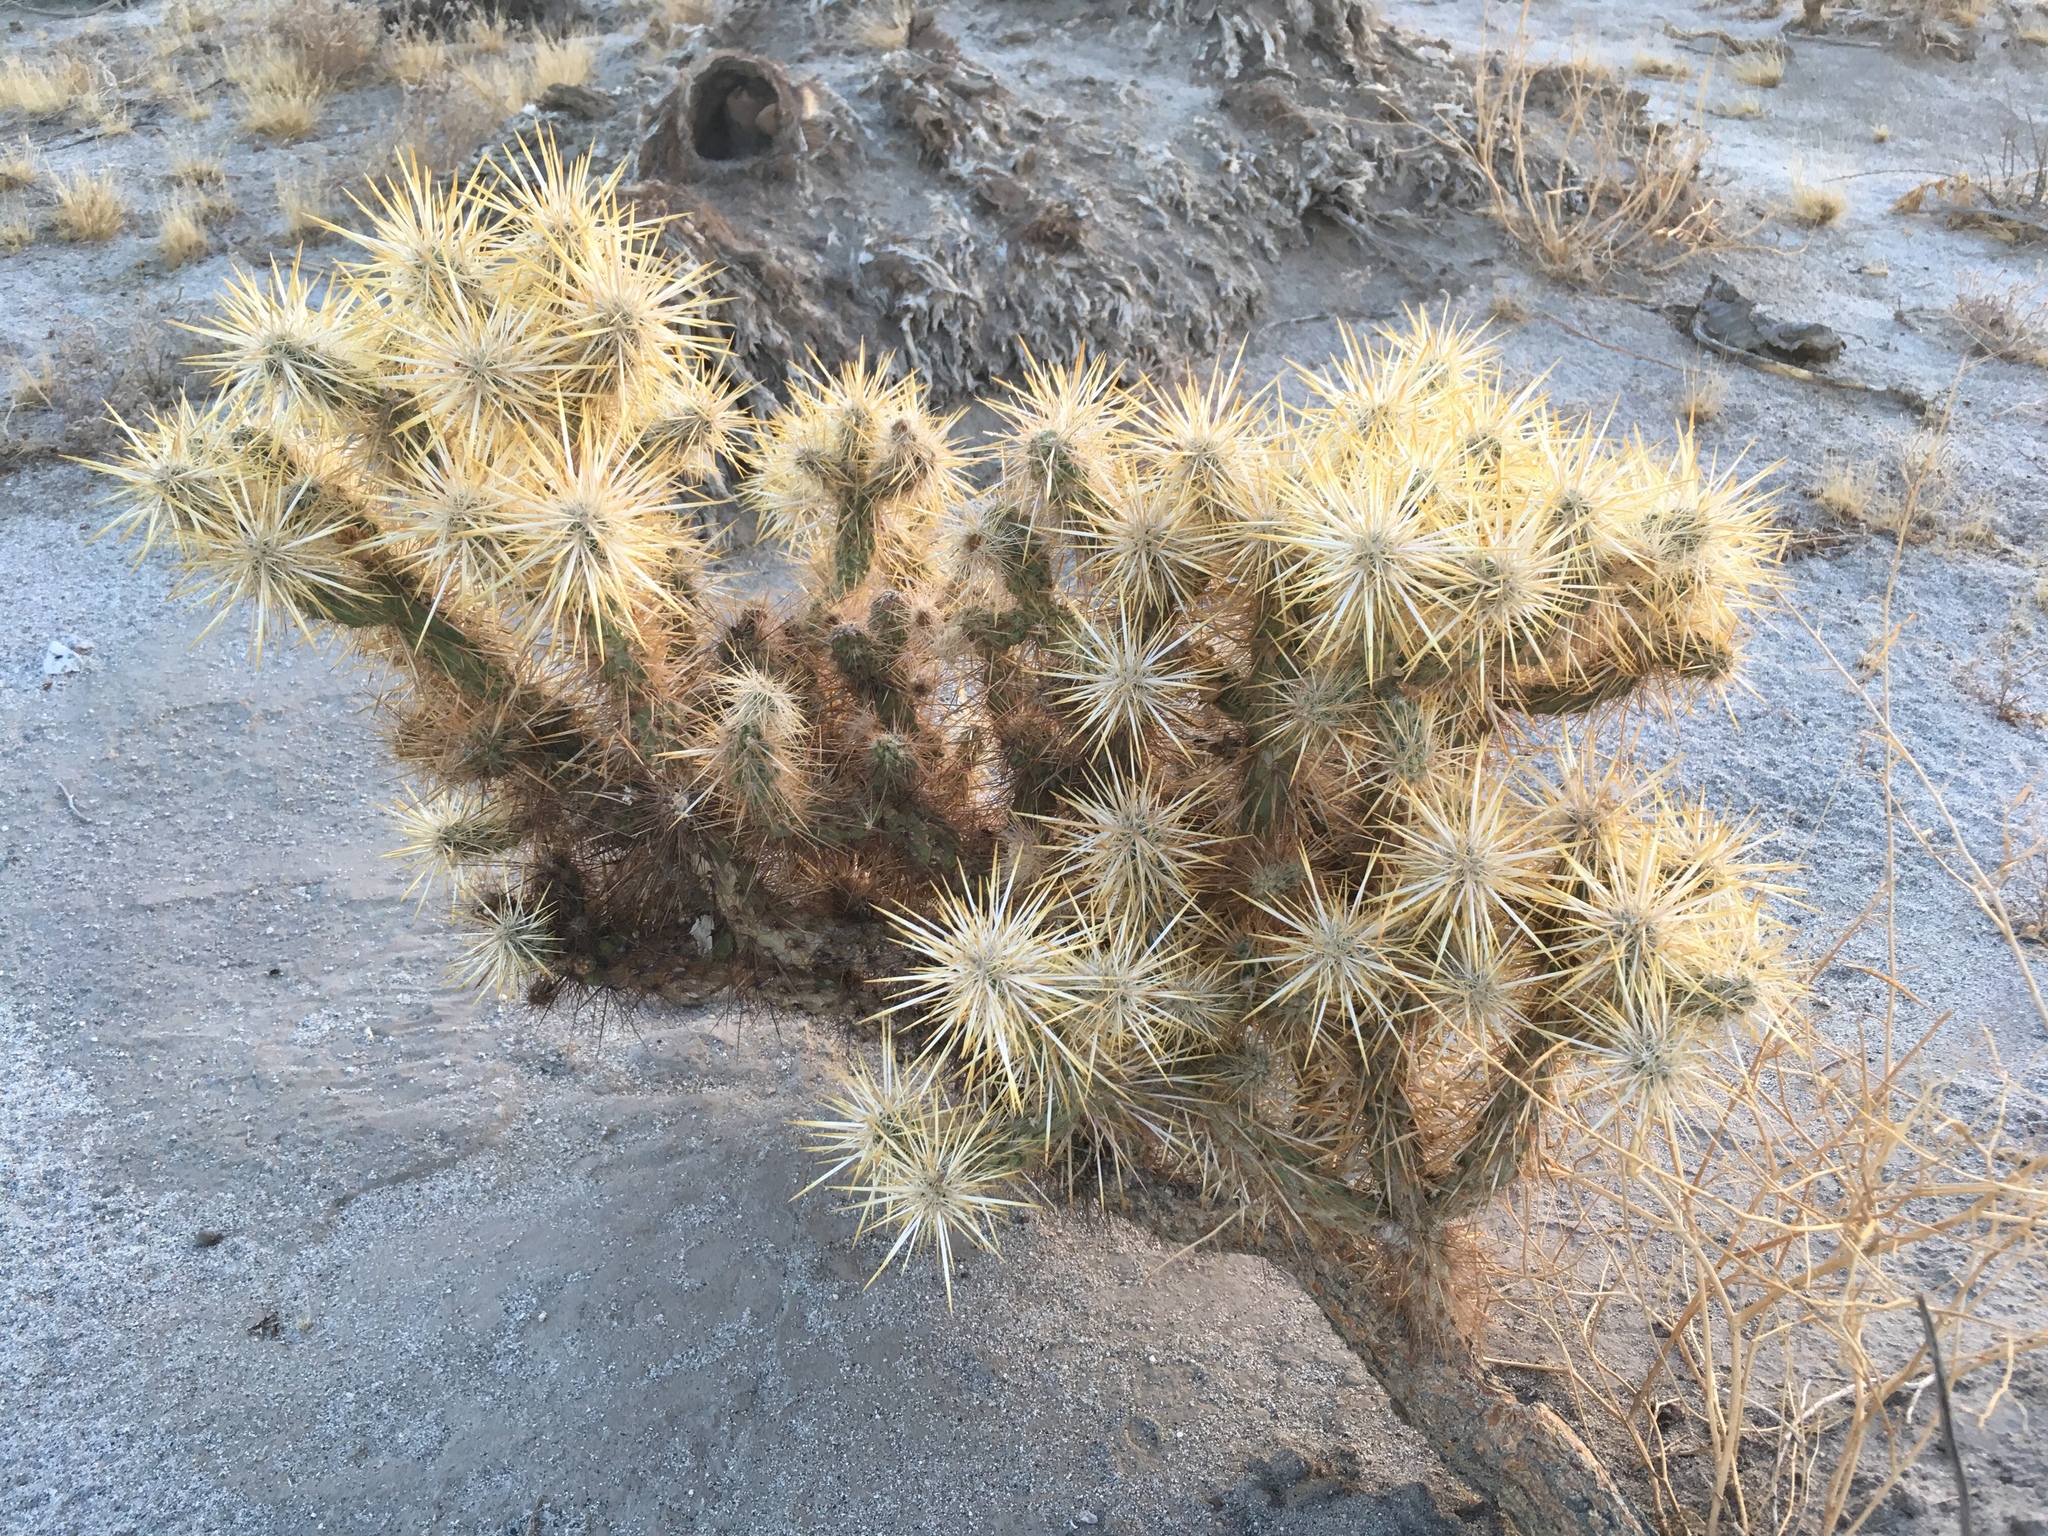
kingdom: Plantae
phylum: Tracheophyta
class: Magnoliopsida
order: Caryophyllales
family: Cactaceae
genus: Cylindropuntia
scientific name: Cylindropuntia echinocarpa
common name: Ground cholla
